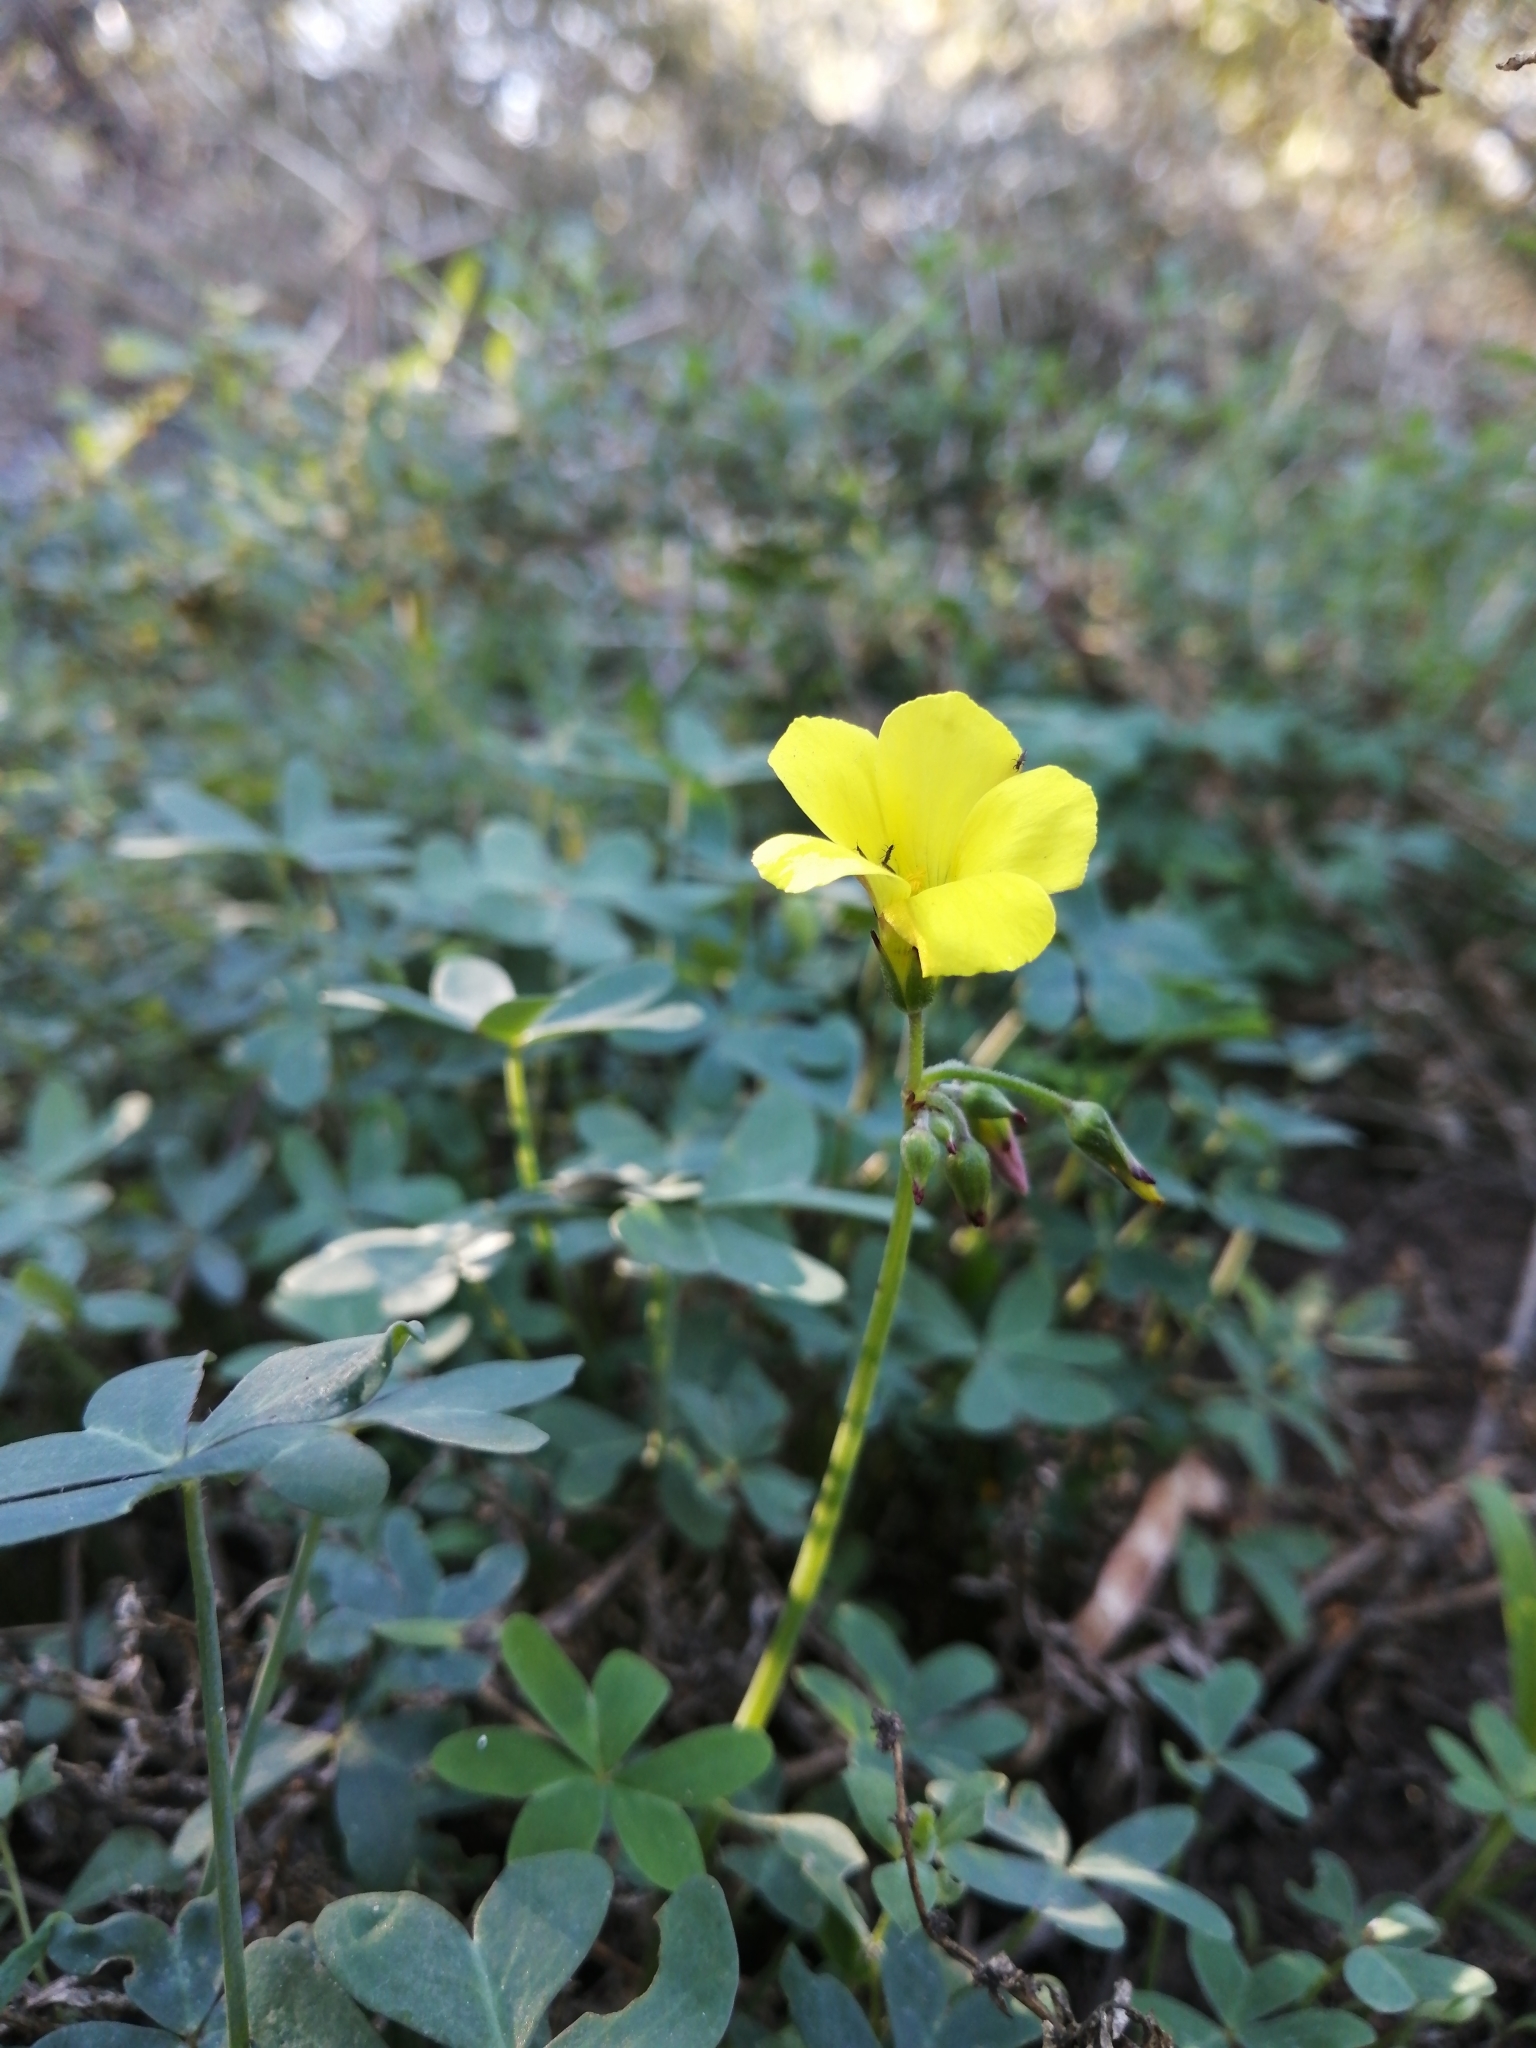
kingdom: Plantae
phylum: Tracheophyta
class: Magnoliopsida
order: Oxalidales
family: Oxalidaceae
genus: Oxalis
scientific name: Oxalis pes-caprae
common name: Bermuda-buttercup
